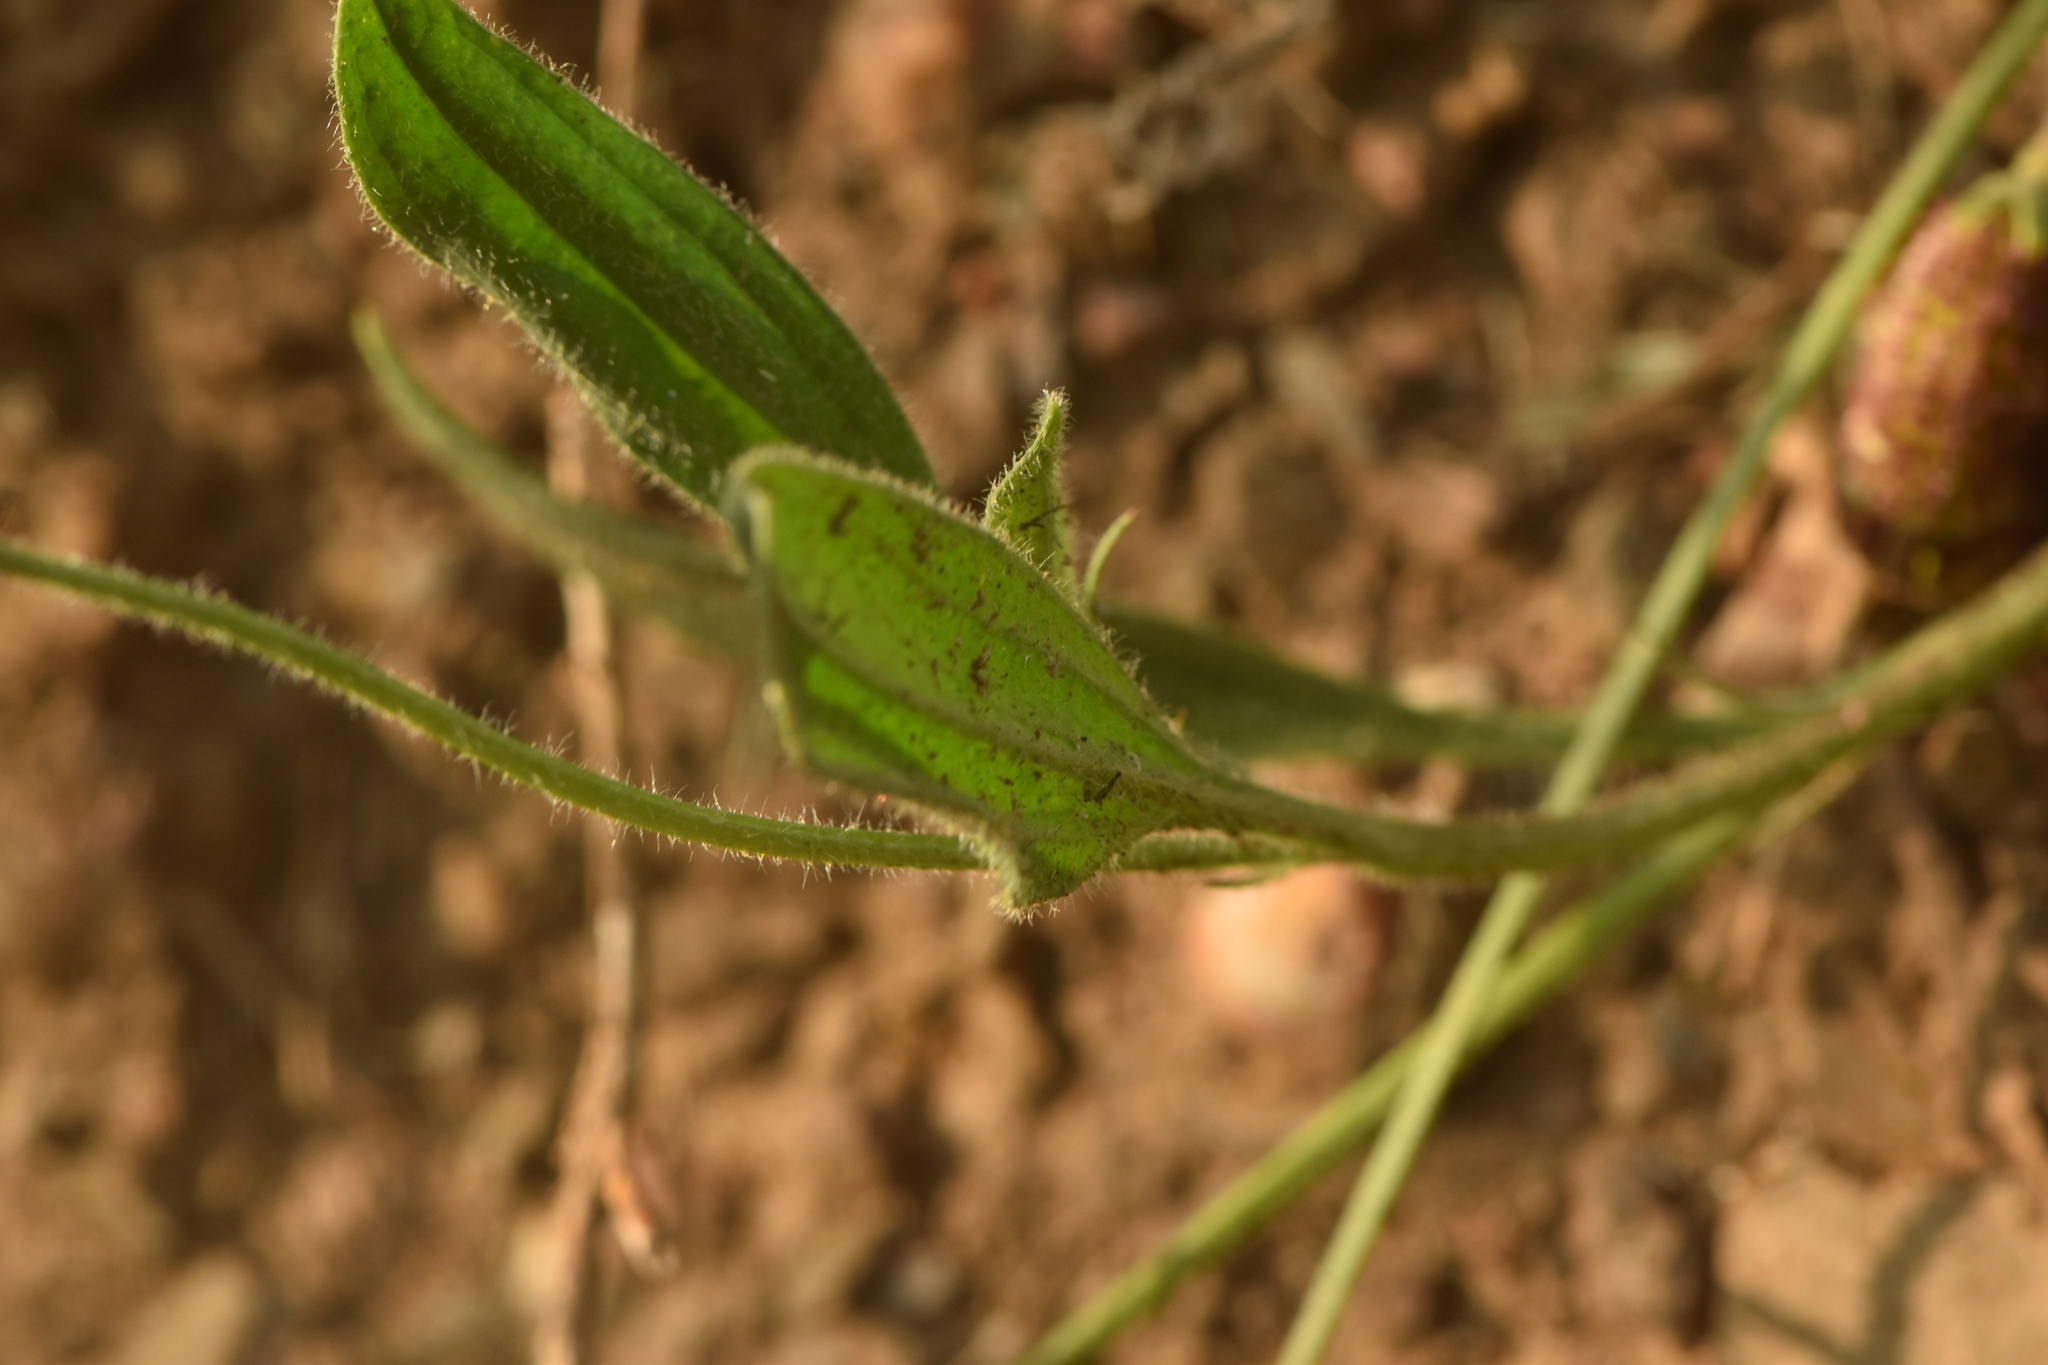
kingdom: Plantae
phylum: Tracheophyta
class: Magnoliopsida
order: Fabales
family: Fabaceae
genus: Scorpiurus
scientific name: Scorpiurus vermiculatus
